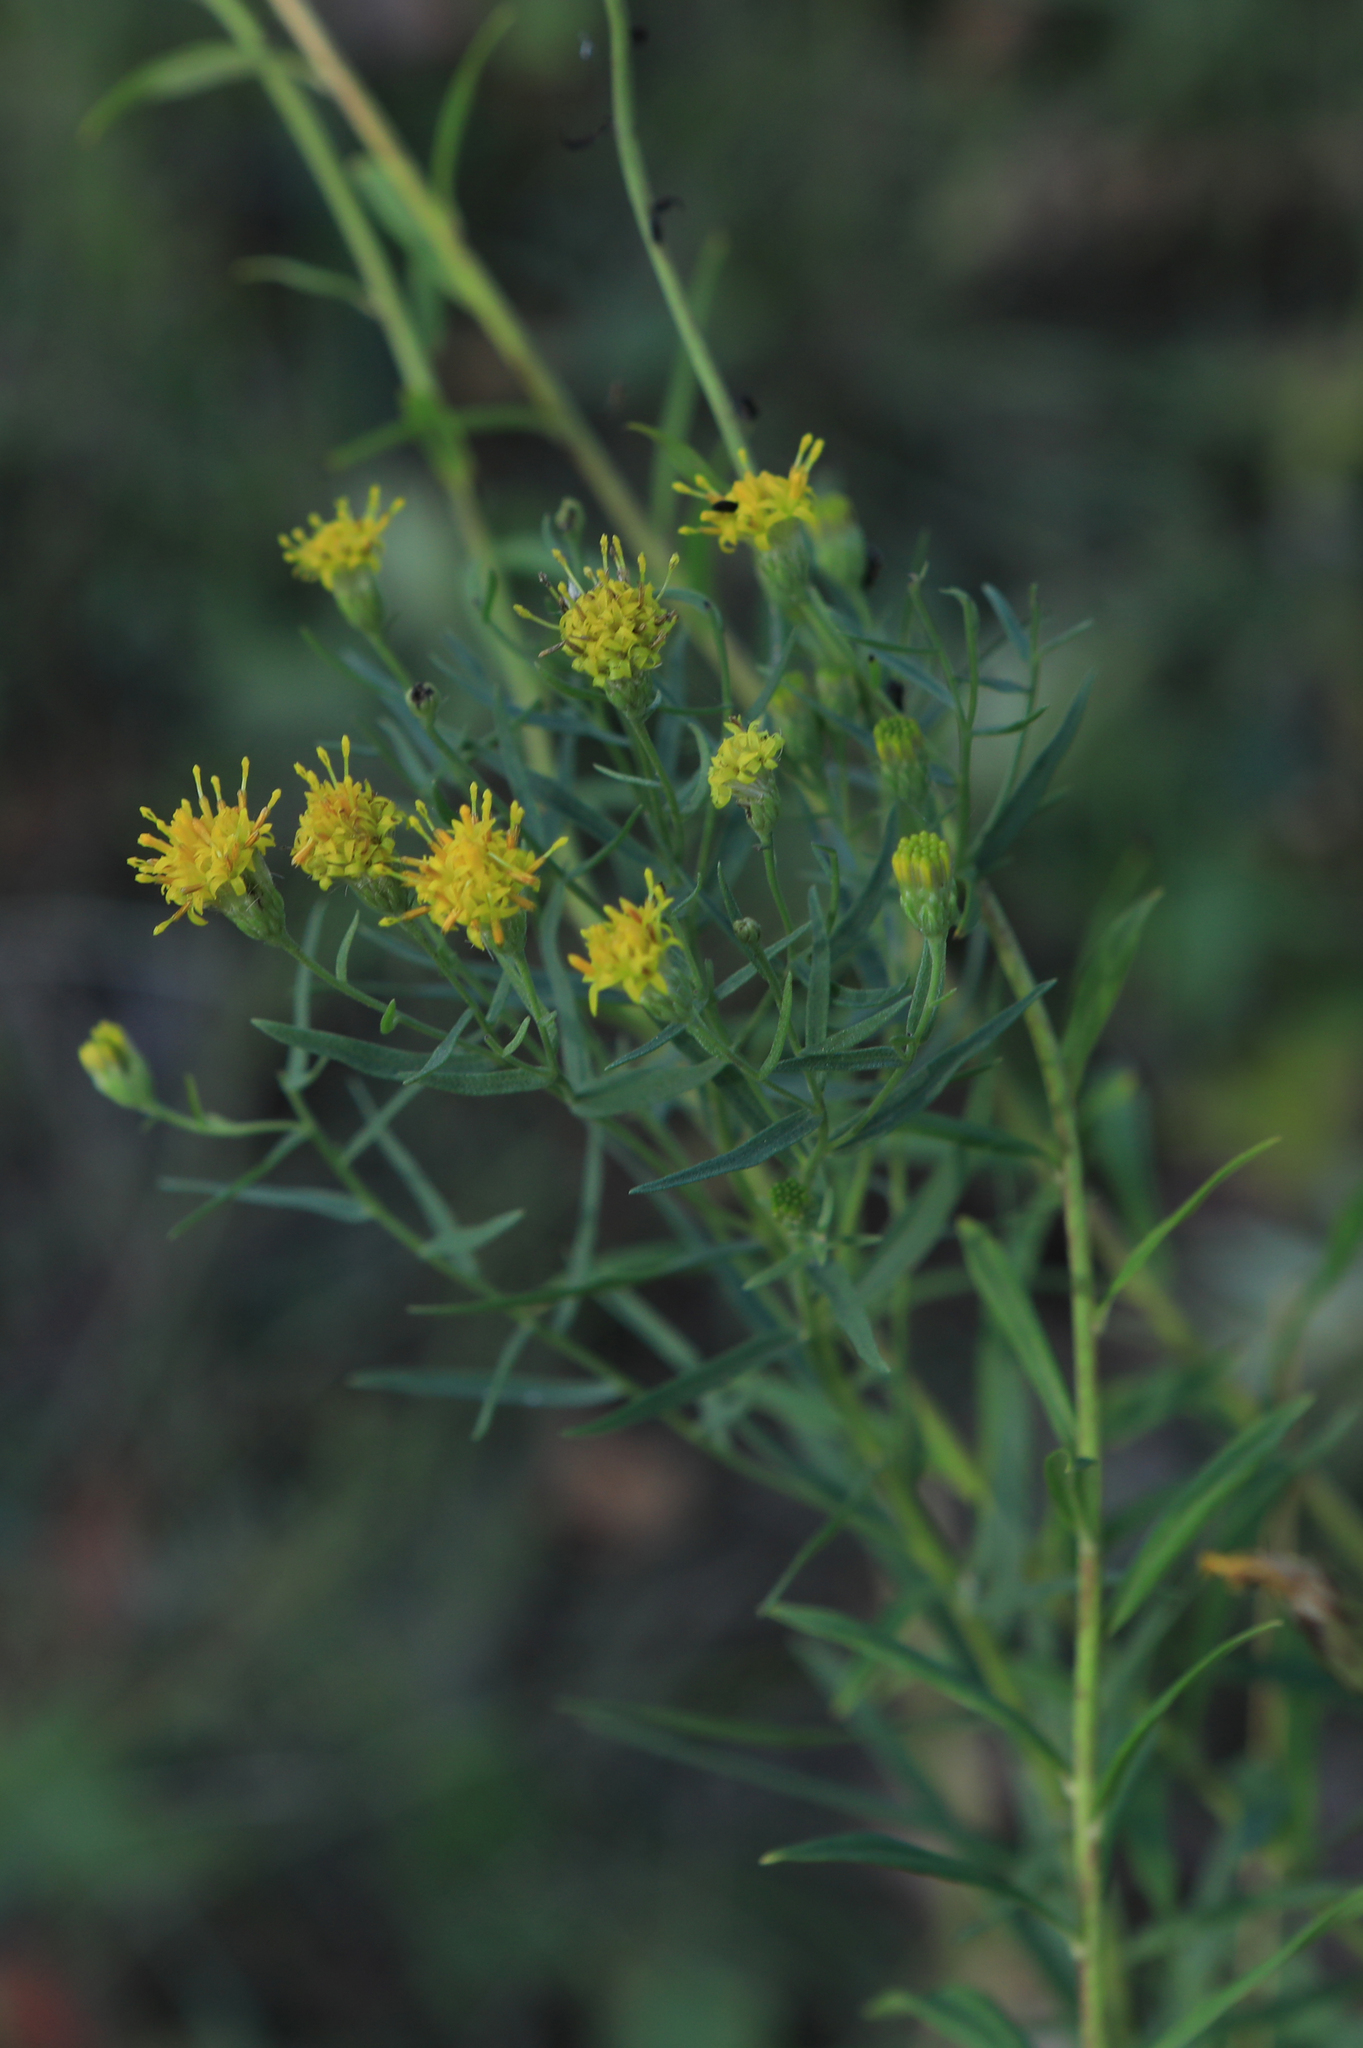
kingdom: Plantae
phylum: Tracheophyta
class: Magnoliopsida
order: Asterales
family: Asteraceae
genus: Galatella
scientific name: Galatella biflora
